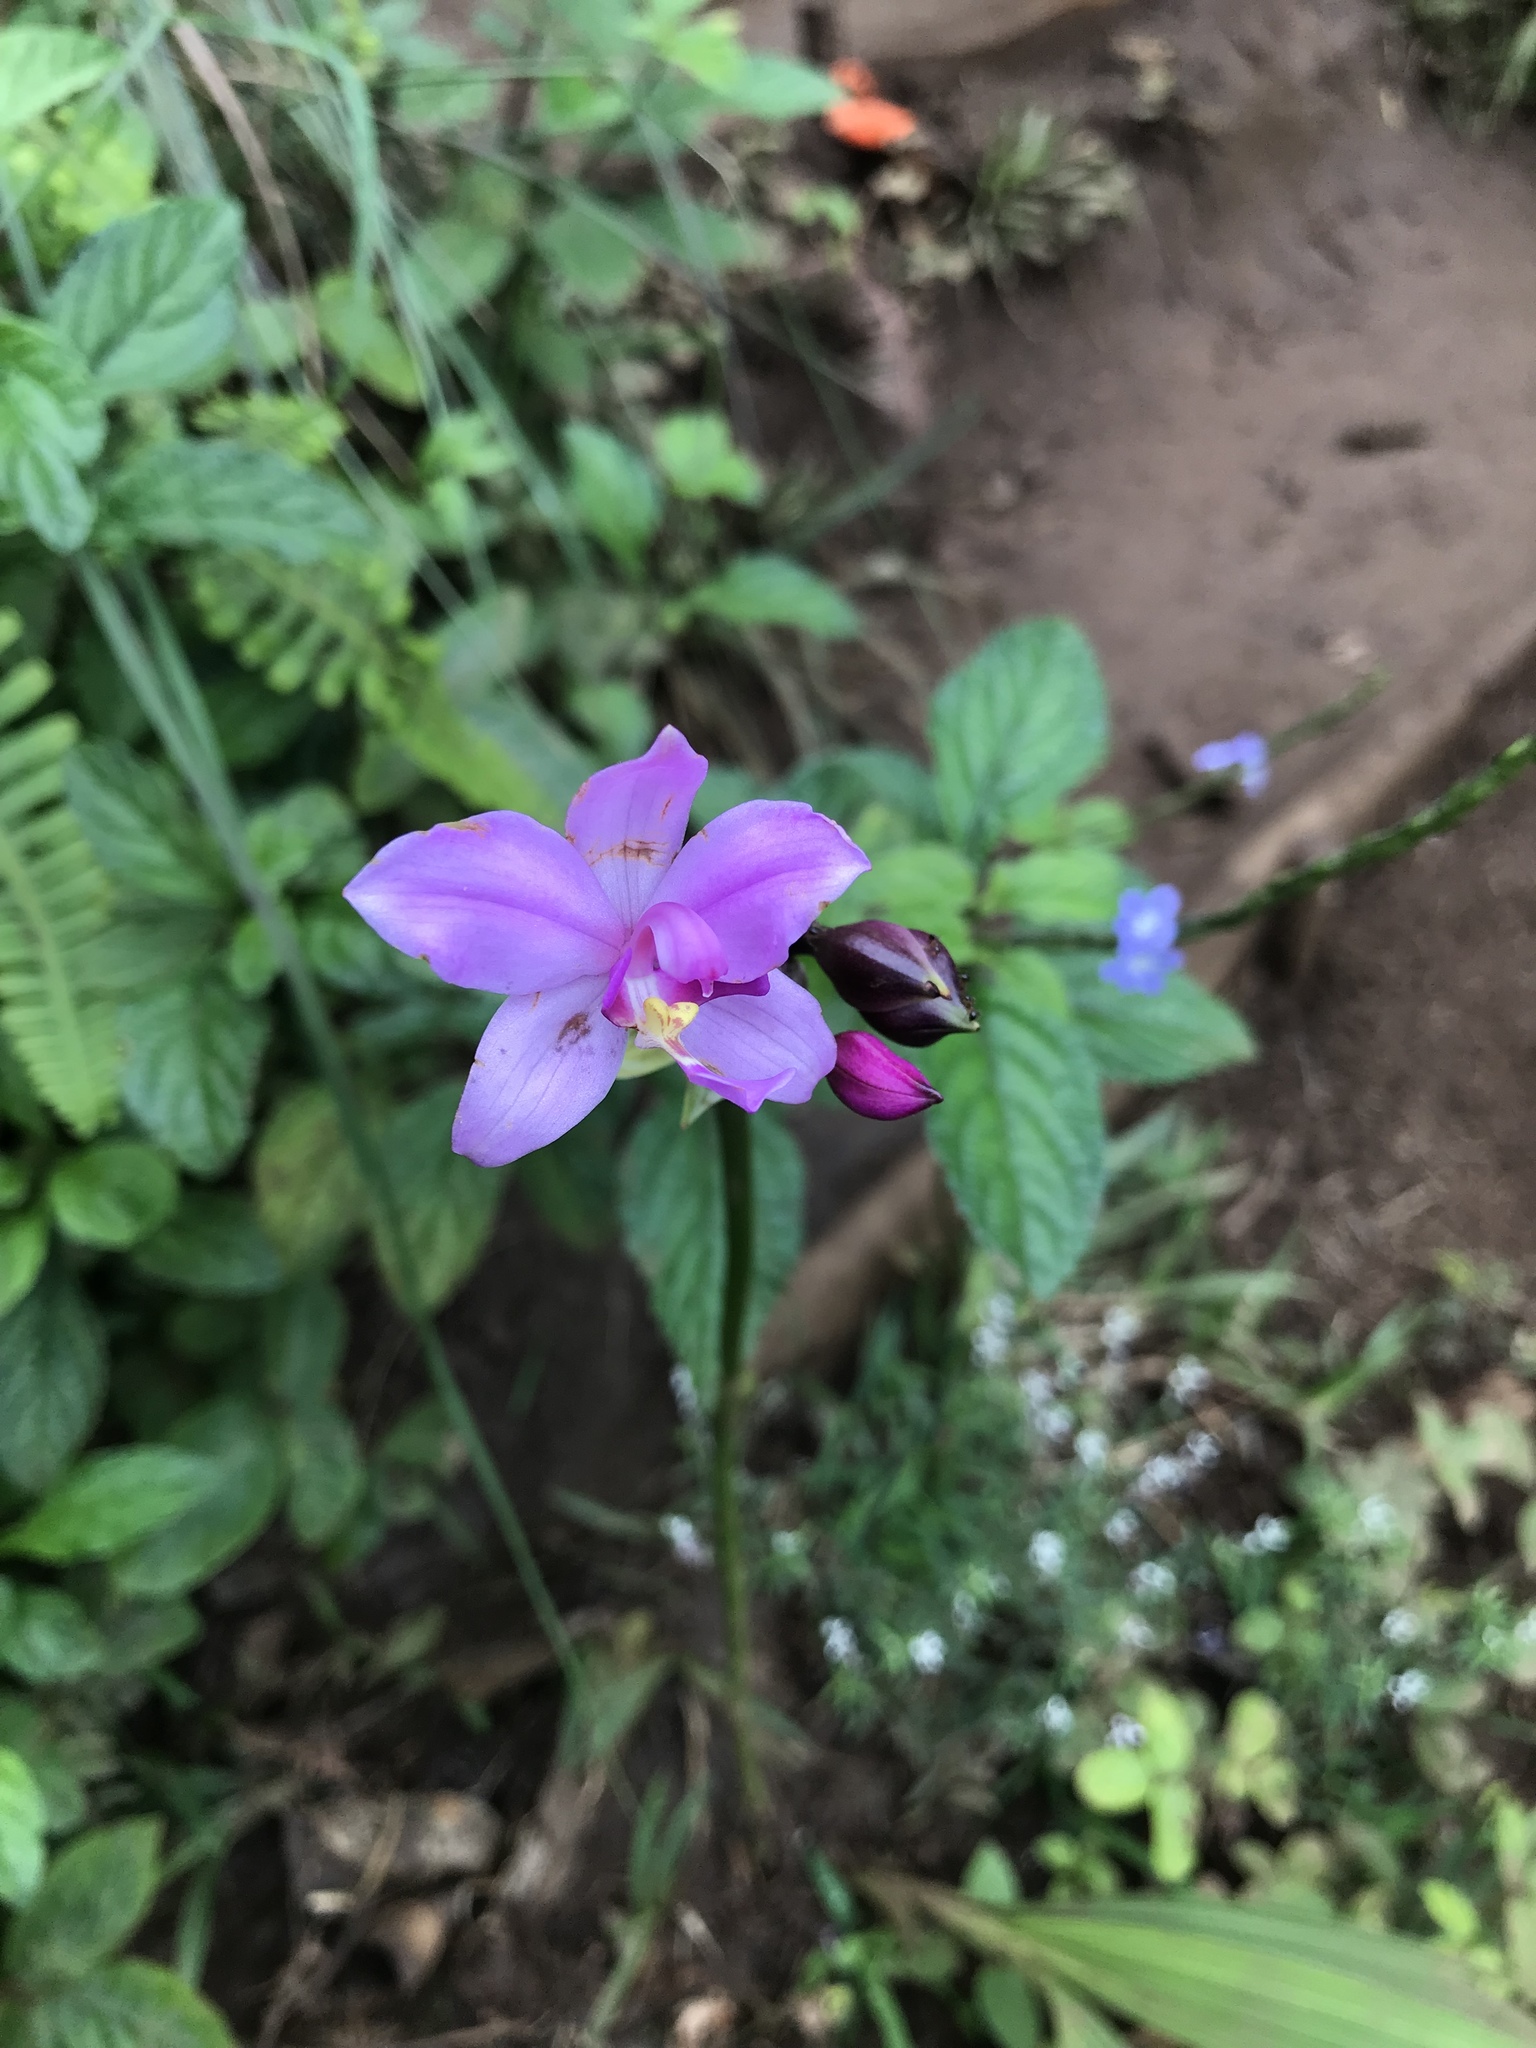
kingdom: Plantae
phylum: Tracheophyta
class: Liliopsida
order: Asparagales
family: Orchidaceae
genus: Spathoglottis
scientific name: Spathoglottis plicata
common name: Philippine ground orchid
